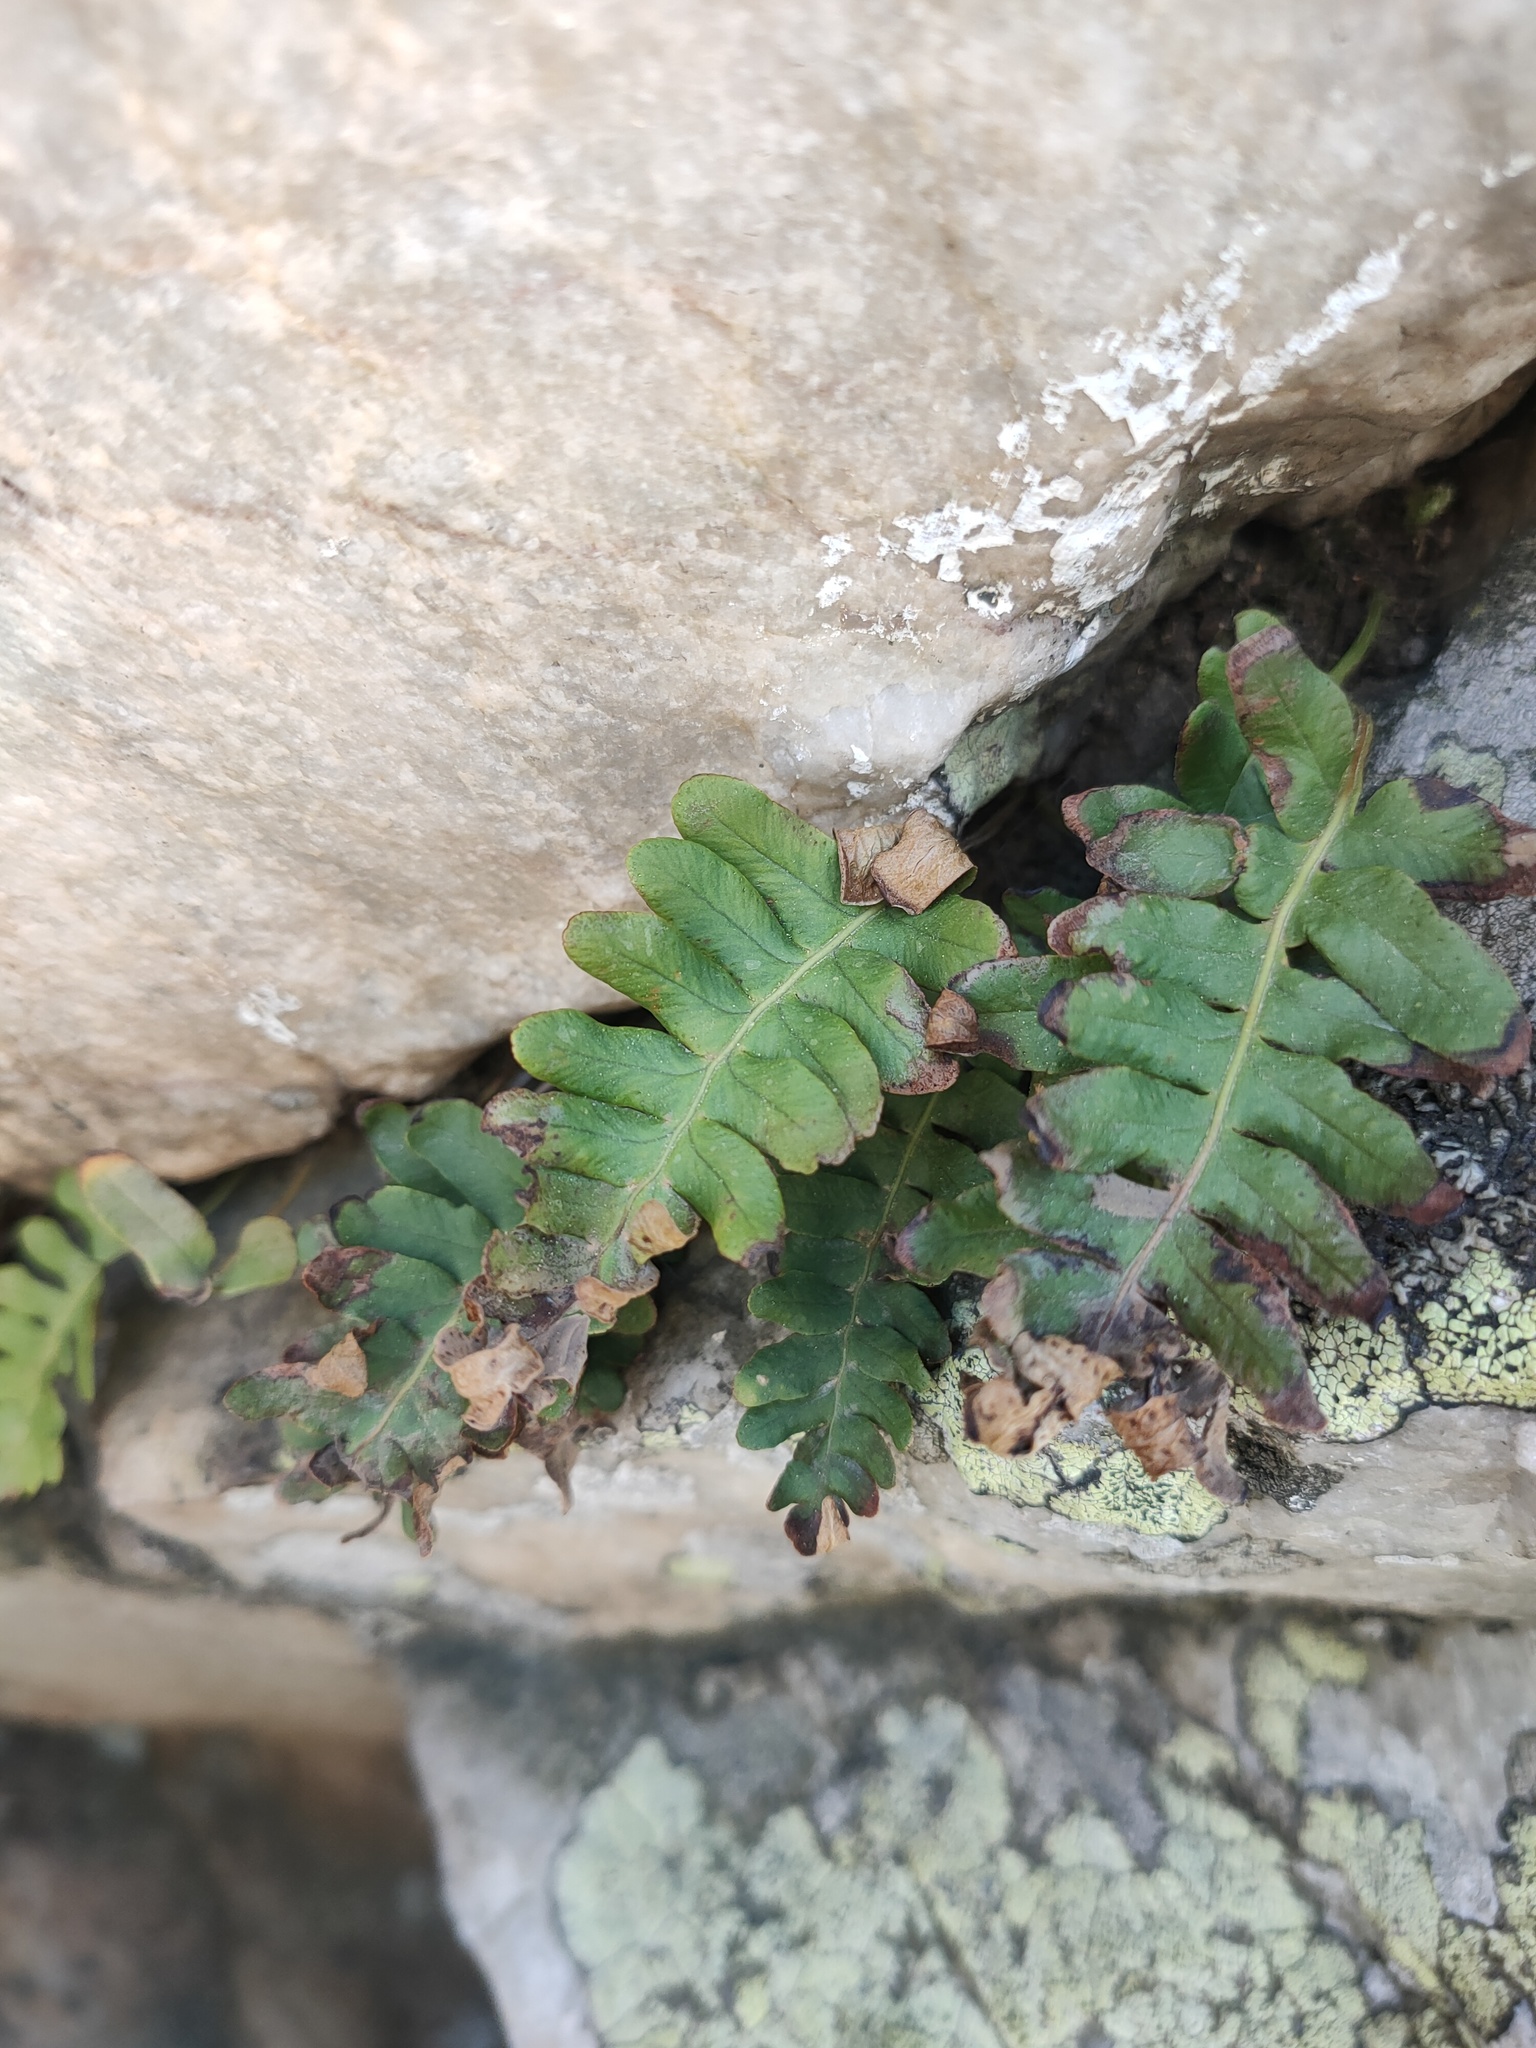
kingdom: Plantae
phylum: Tracheophyta
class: Polypodiopsida
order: Polypodiales
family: Polypodiaceae
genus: Polypodium
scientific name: Polypodium vulgare
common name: Common polypody
